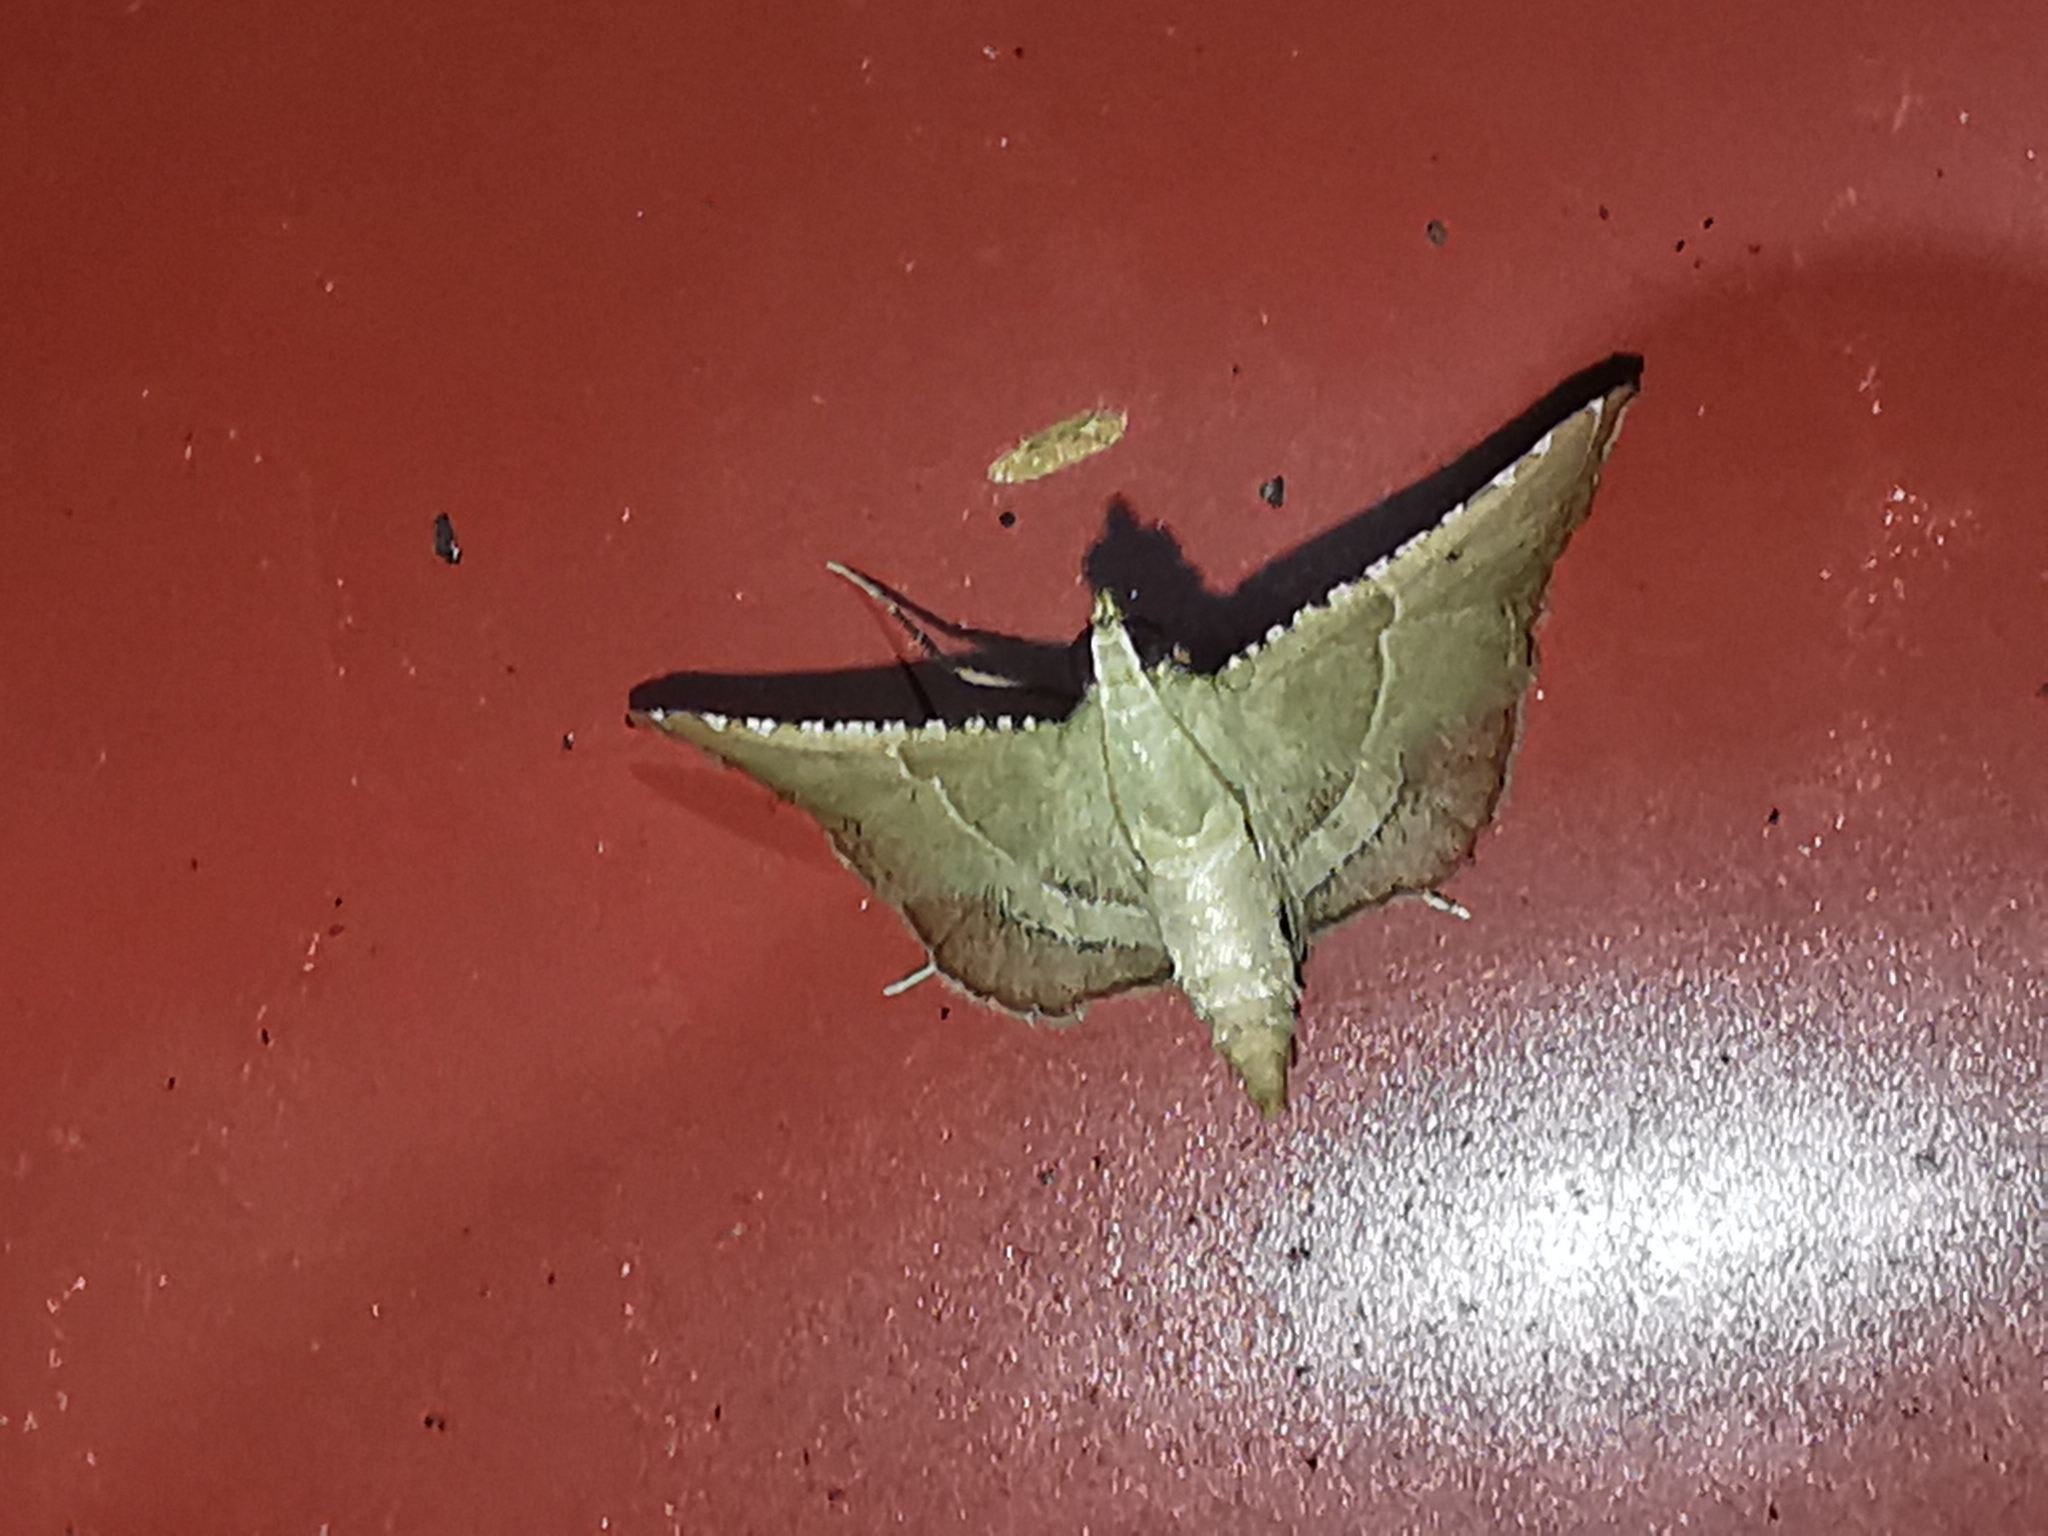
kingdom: Animalia
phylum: Arthropoda
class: Insecta
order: Lepidoptera
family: Pyralidae
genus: Endotricha
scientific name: Endotricha flammealis
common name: Rosy tabby
